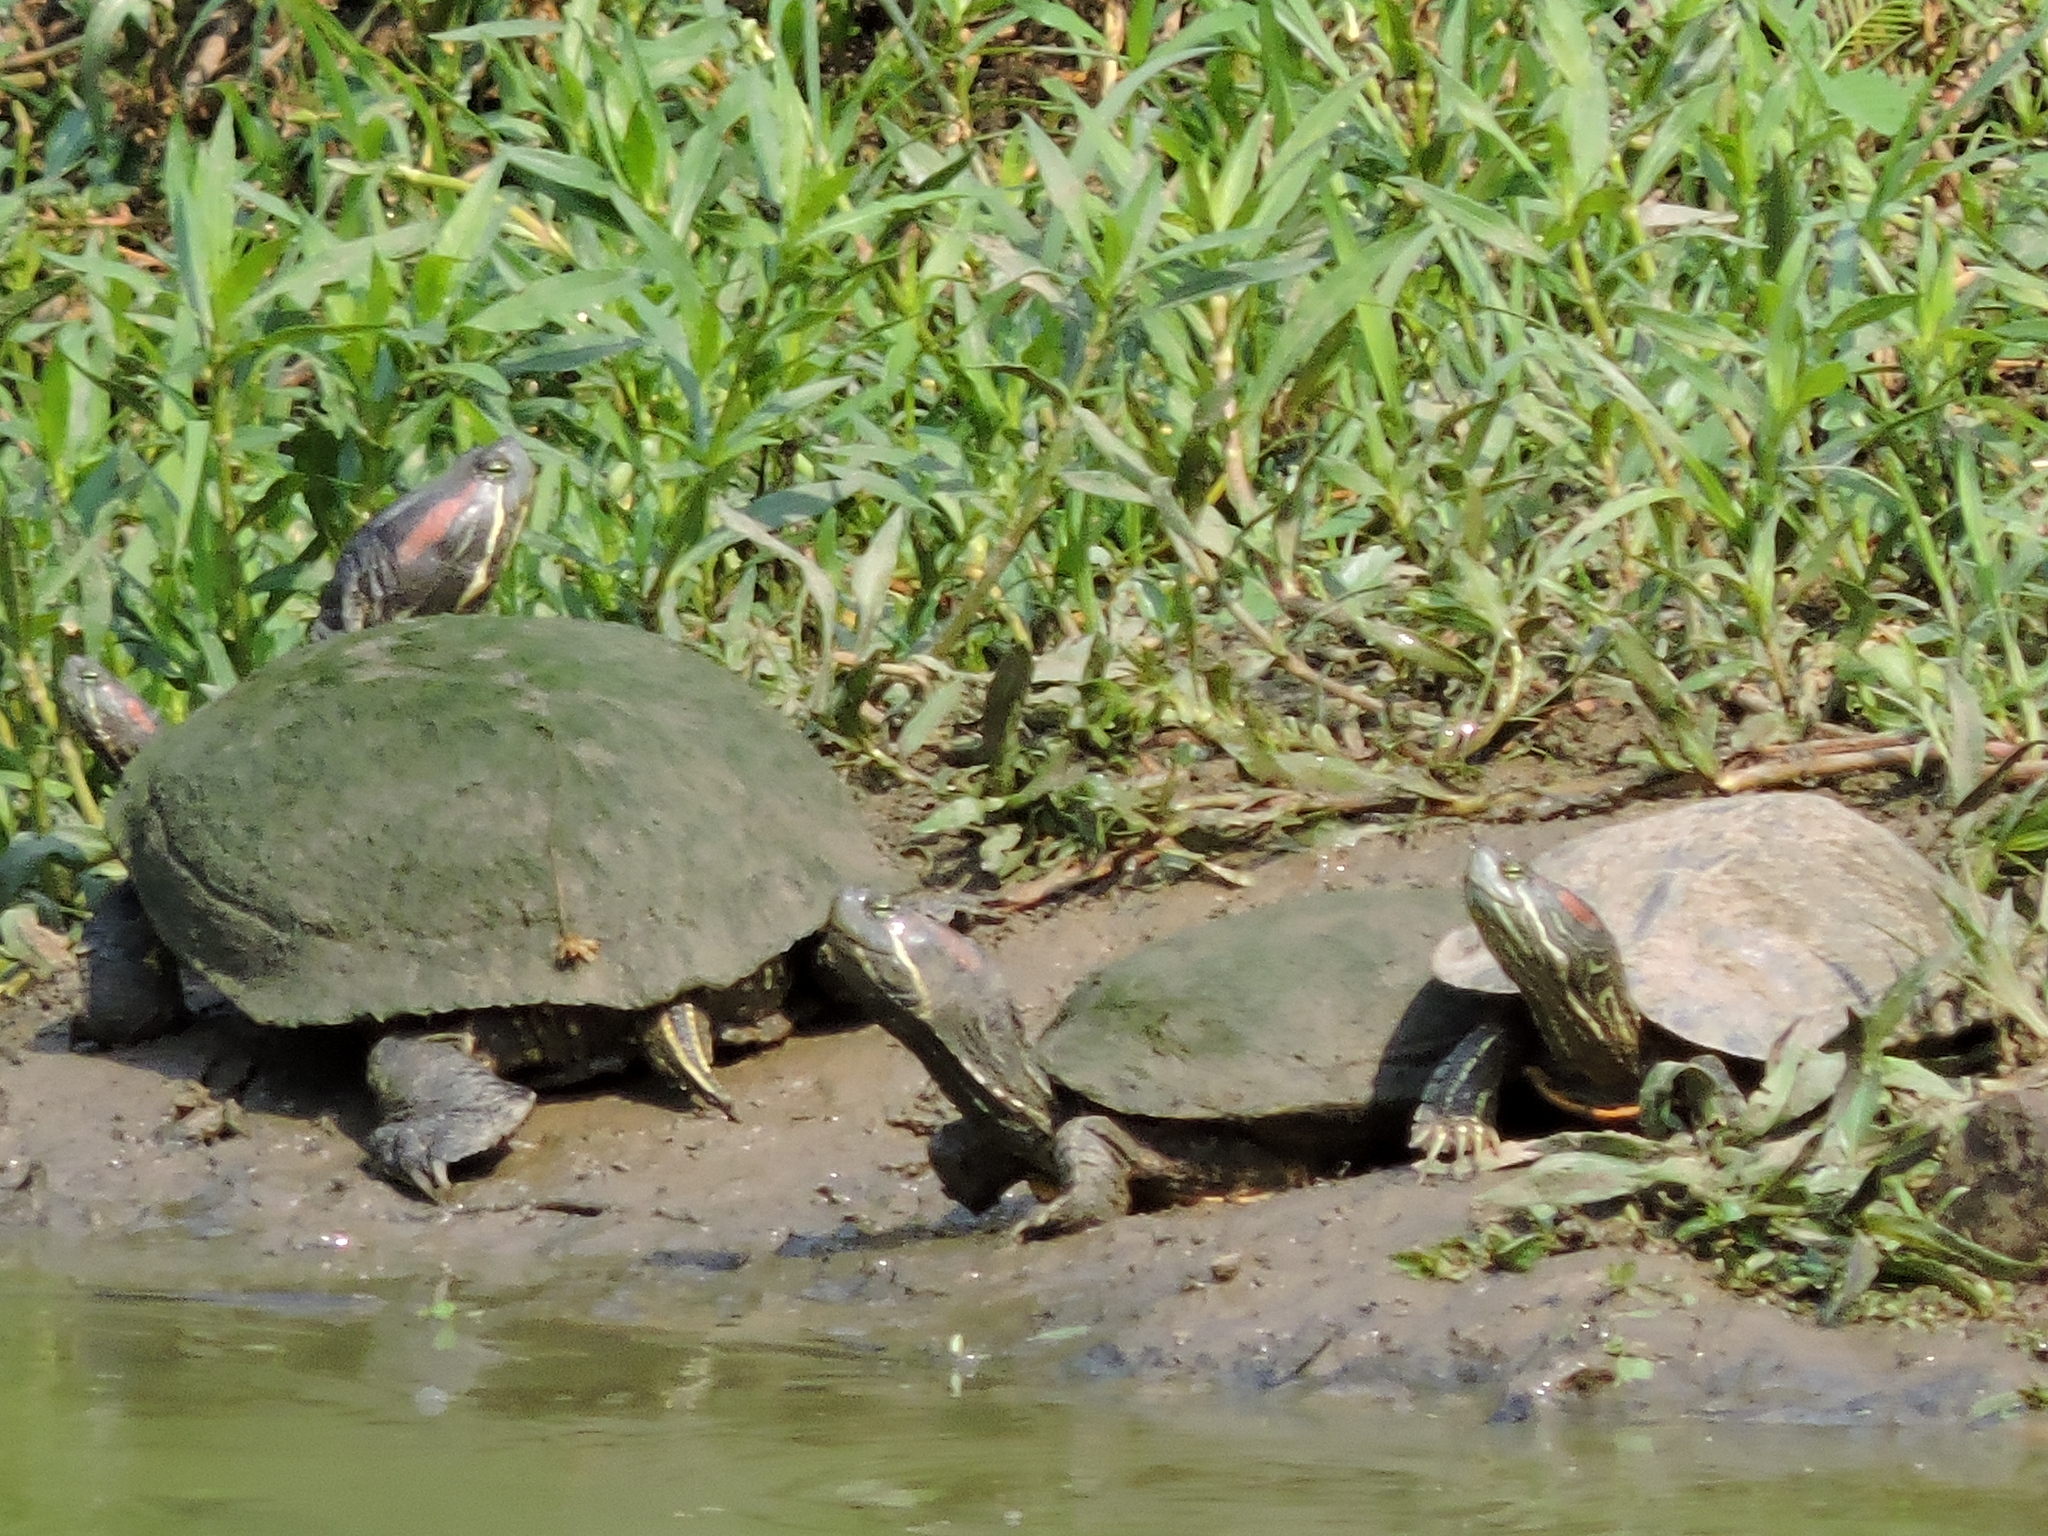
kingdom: Animalia
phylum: Chordata
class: Testudines
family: Emydidae
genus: Trachemys
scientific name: Trachemys scripta
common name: Slider
